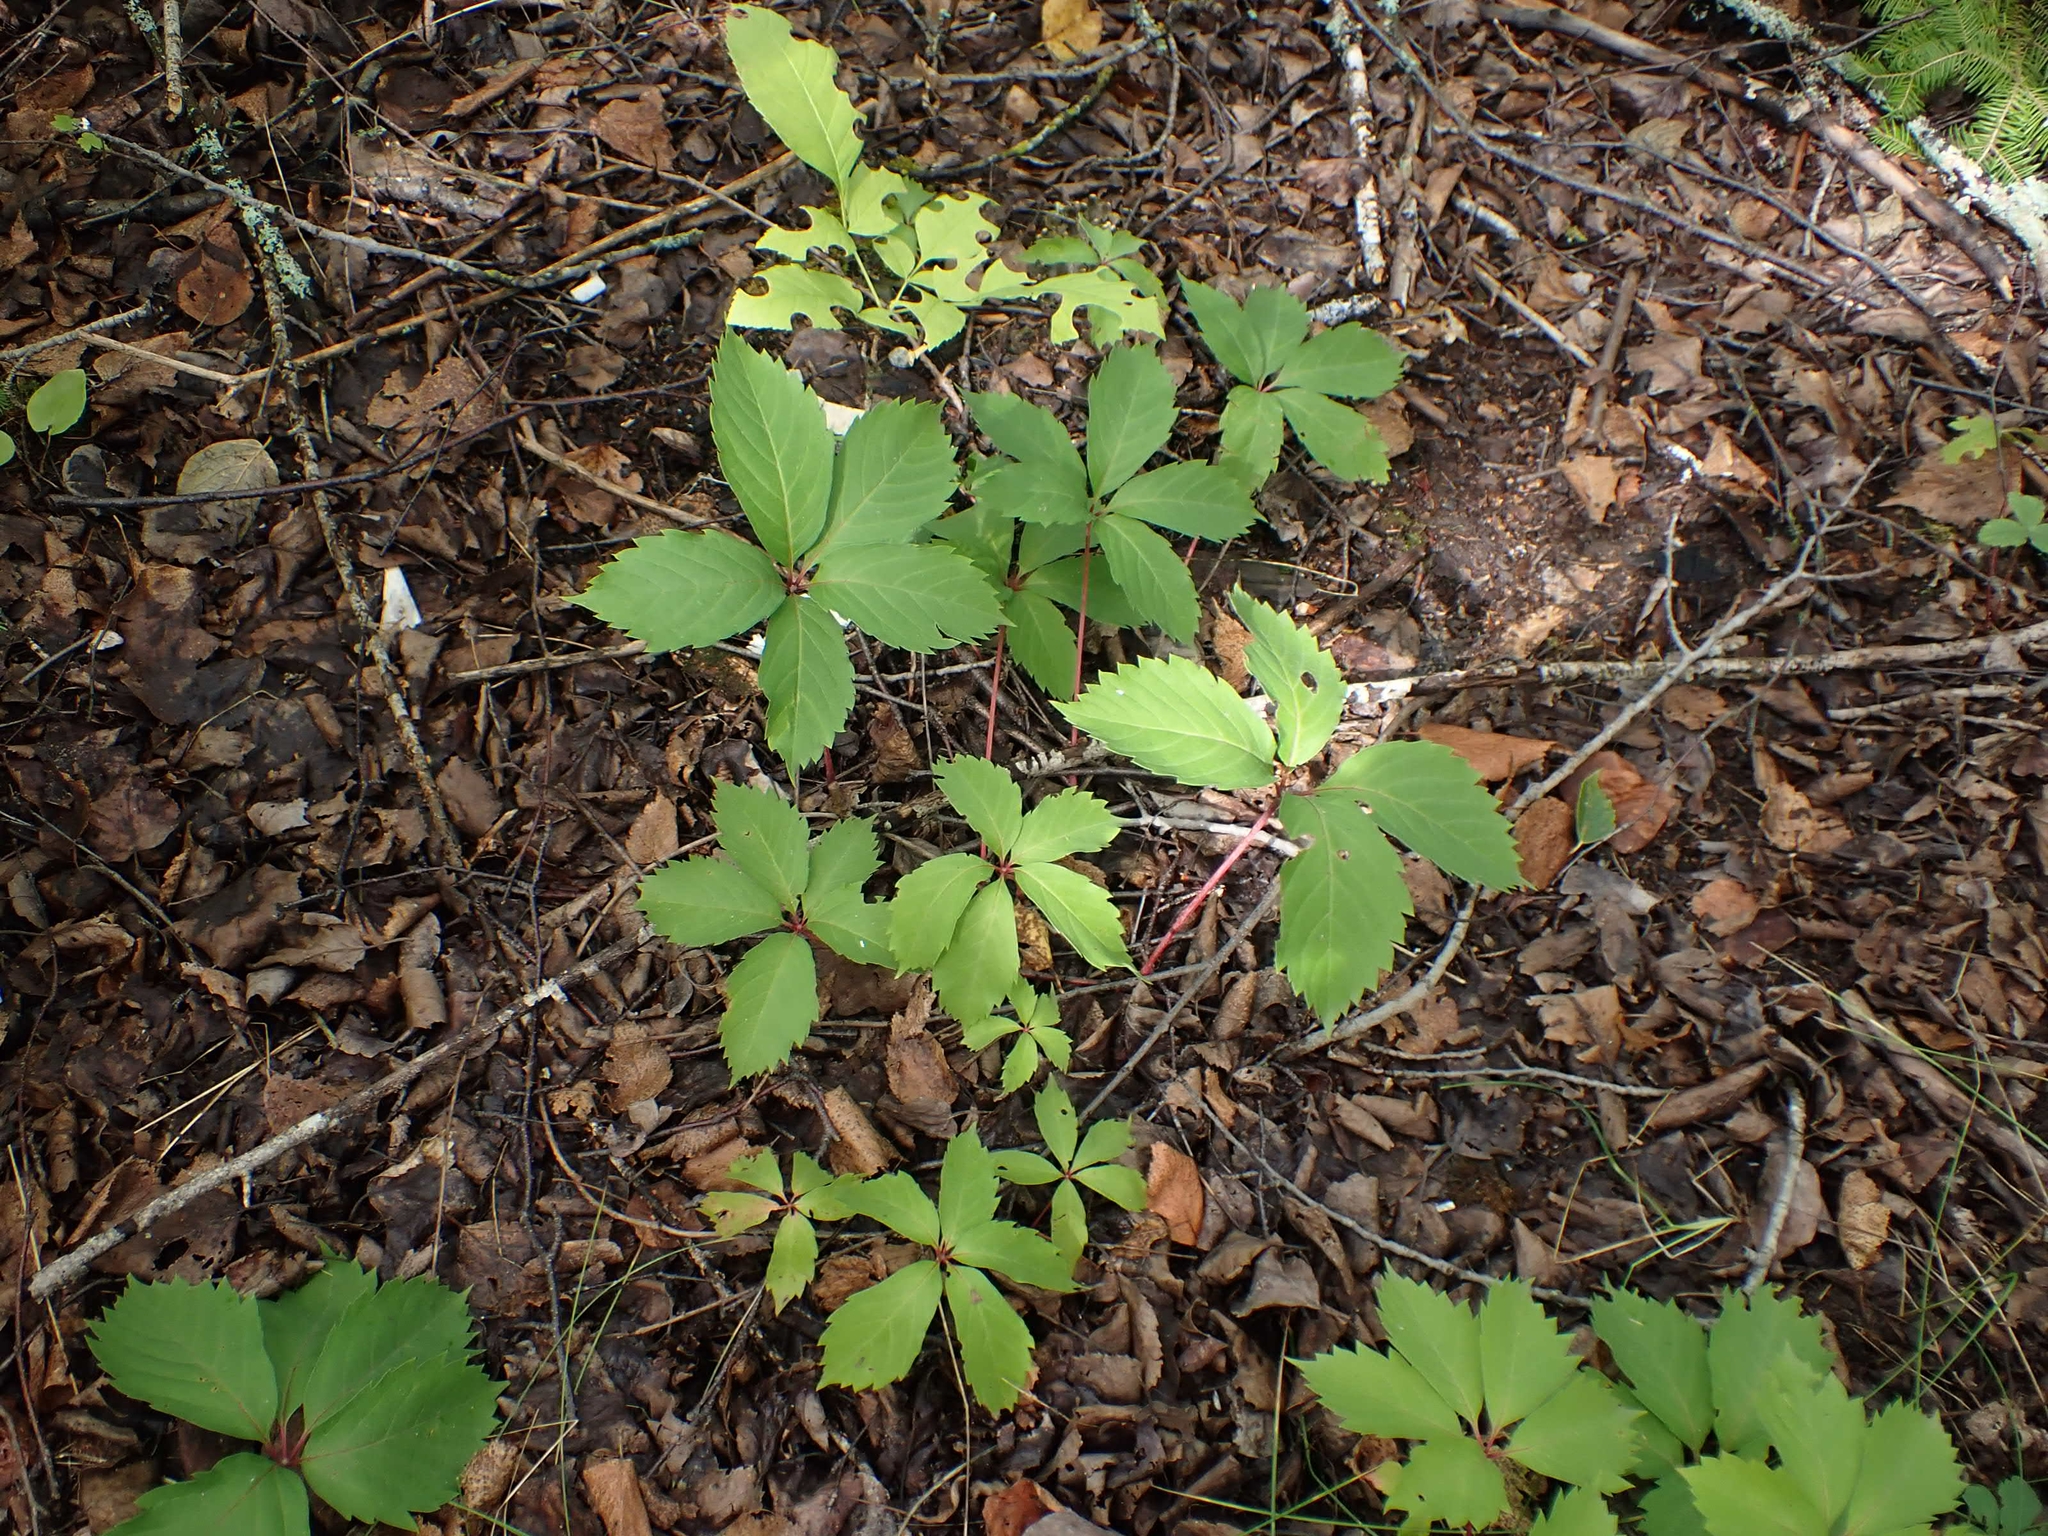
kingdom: Plantae
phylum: Tracheophyta
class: Magnoliopsida
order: Vitales
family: Vitaceae
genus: Parthenocissus
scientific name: Parthenocissus inserta
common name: False virginia-creeper
